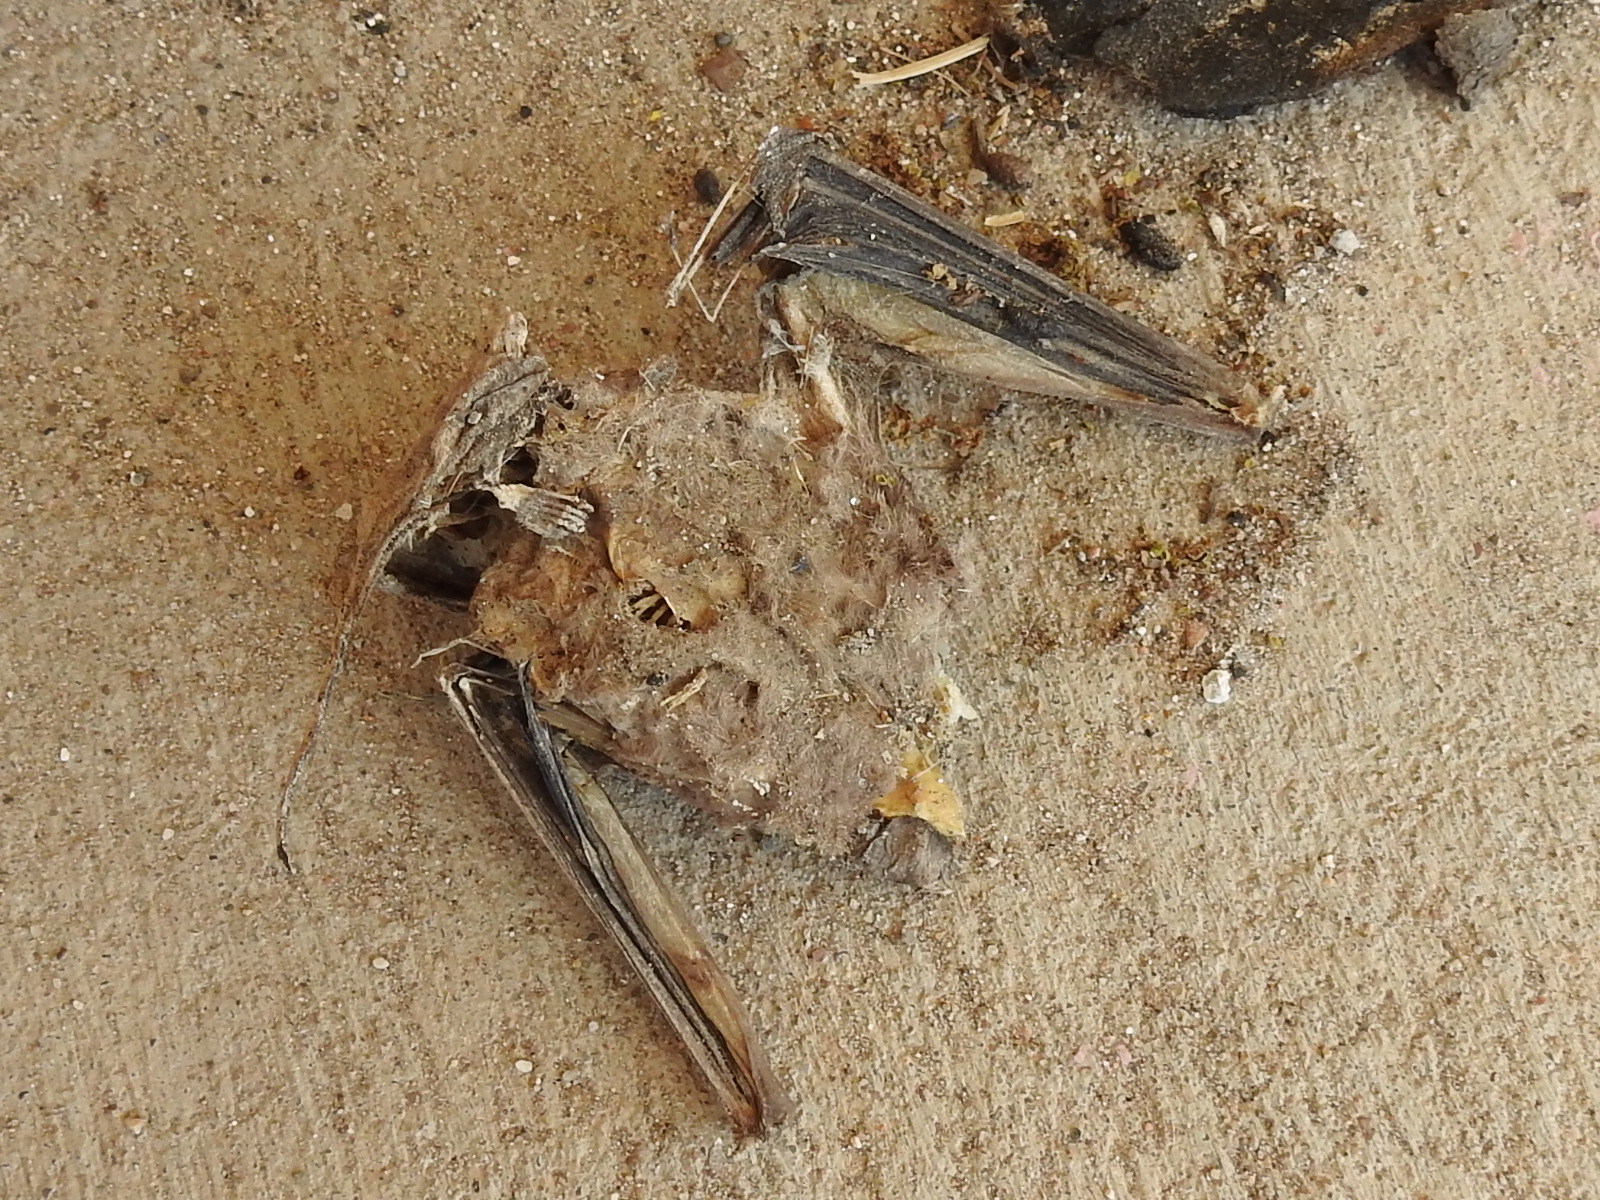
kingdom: Animalia
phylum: Chordata
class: Mammalia
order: Chiroptera
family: Molossidae
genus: Tadarida
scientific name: Tadarida brasiliensis
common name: Mexican free-tailed bat
